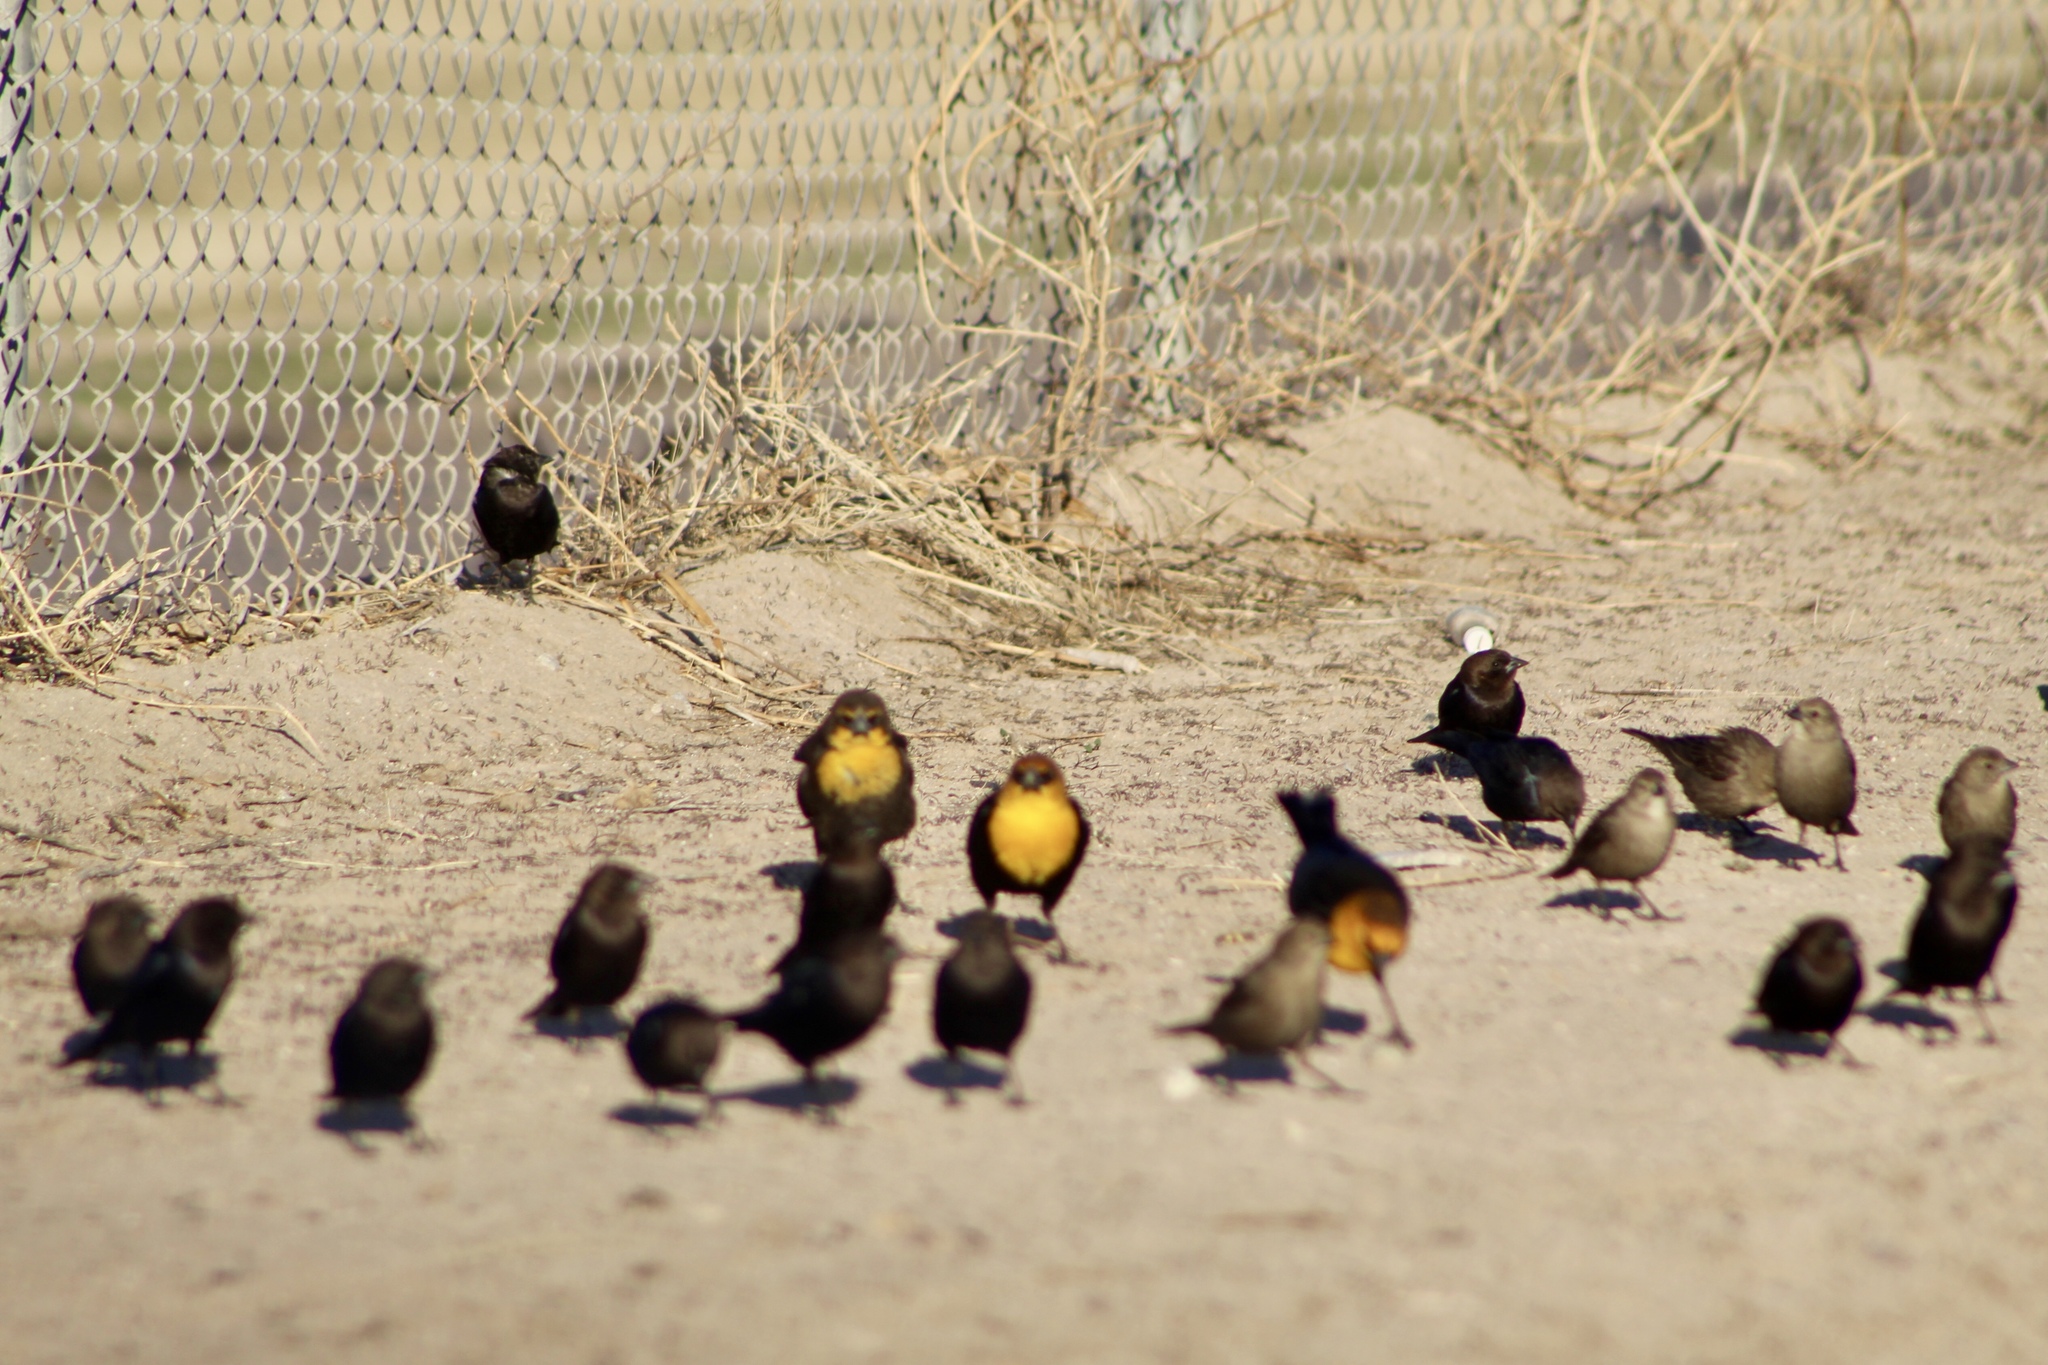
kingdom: Animalia
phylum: Chordata
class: Aves
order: Passeriformes
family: Icteridae
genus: Xanthocephalus
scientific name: Xanthocephalus xanthocephalus
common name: Yellow-headed blackbird
